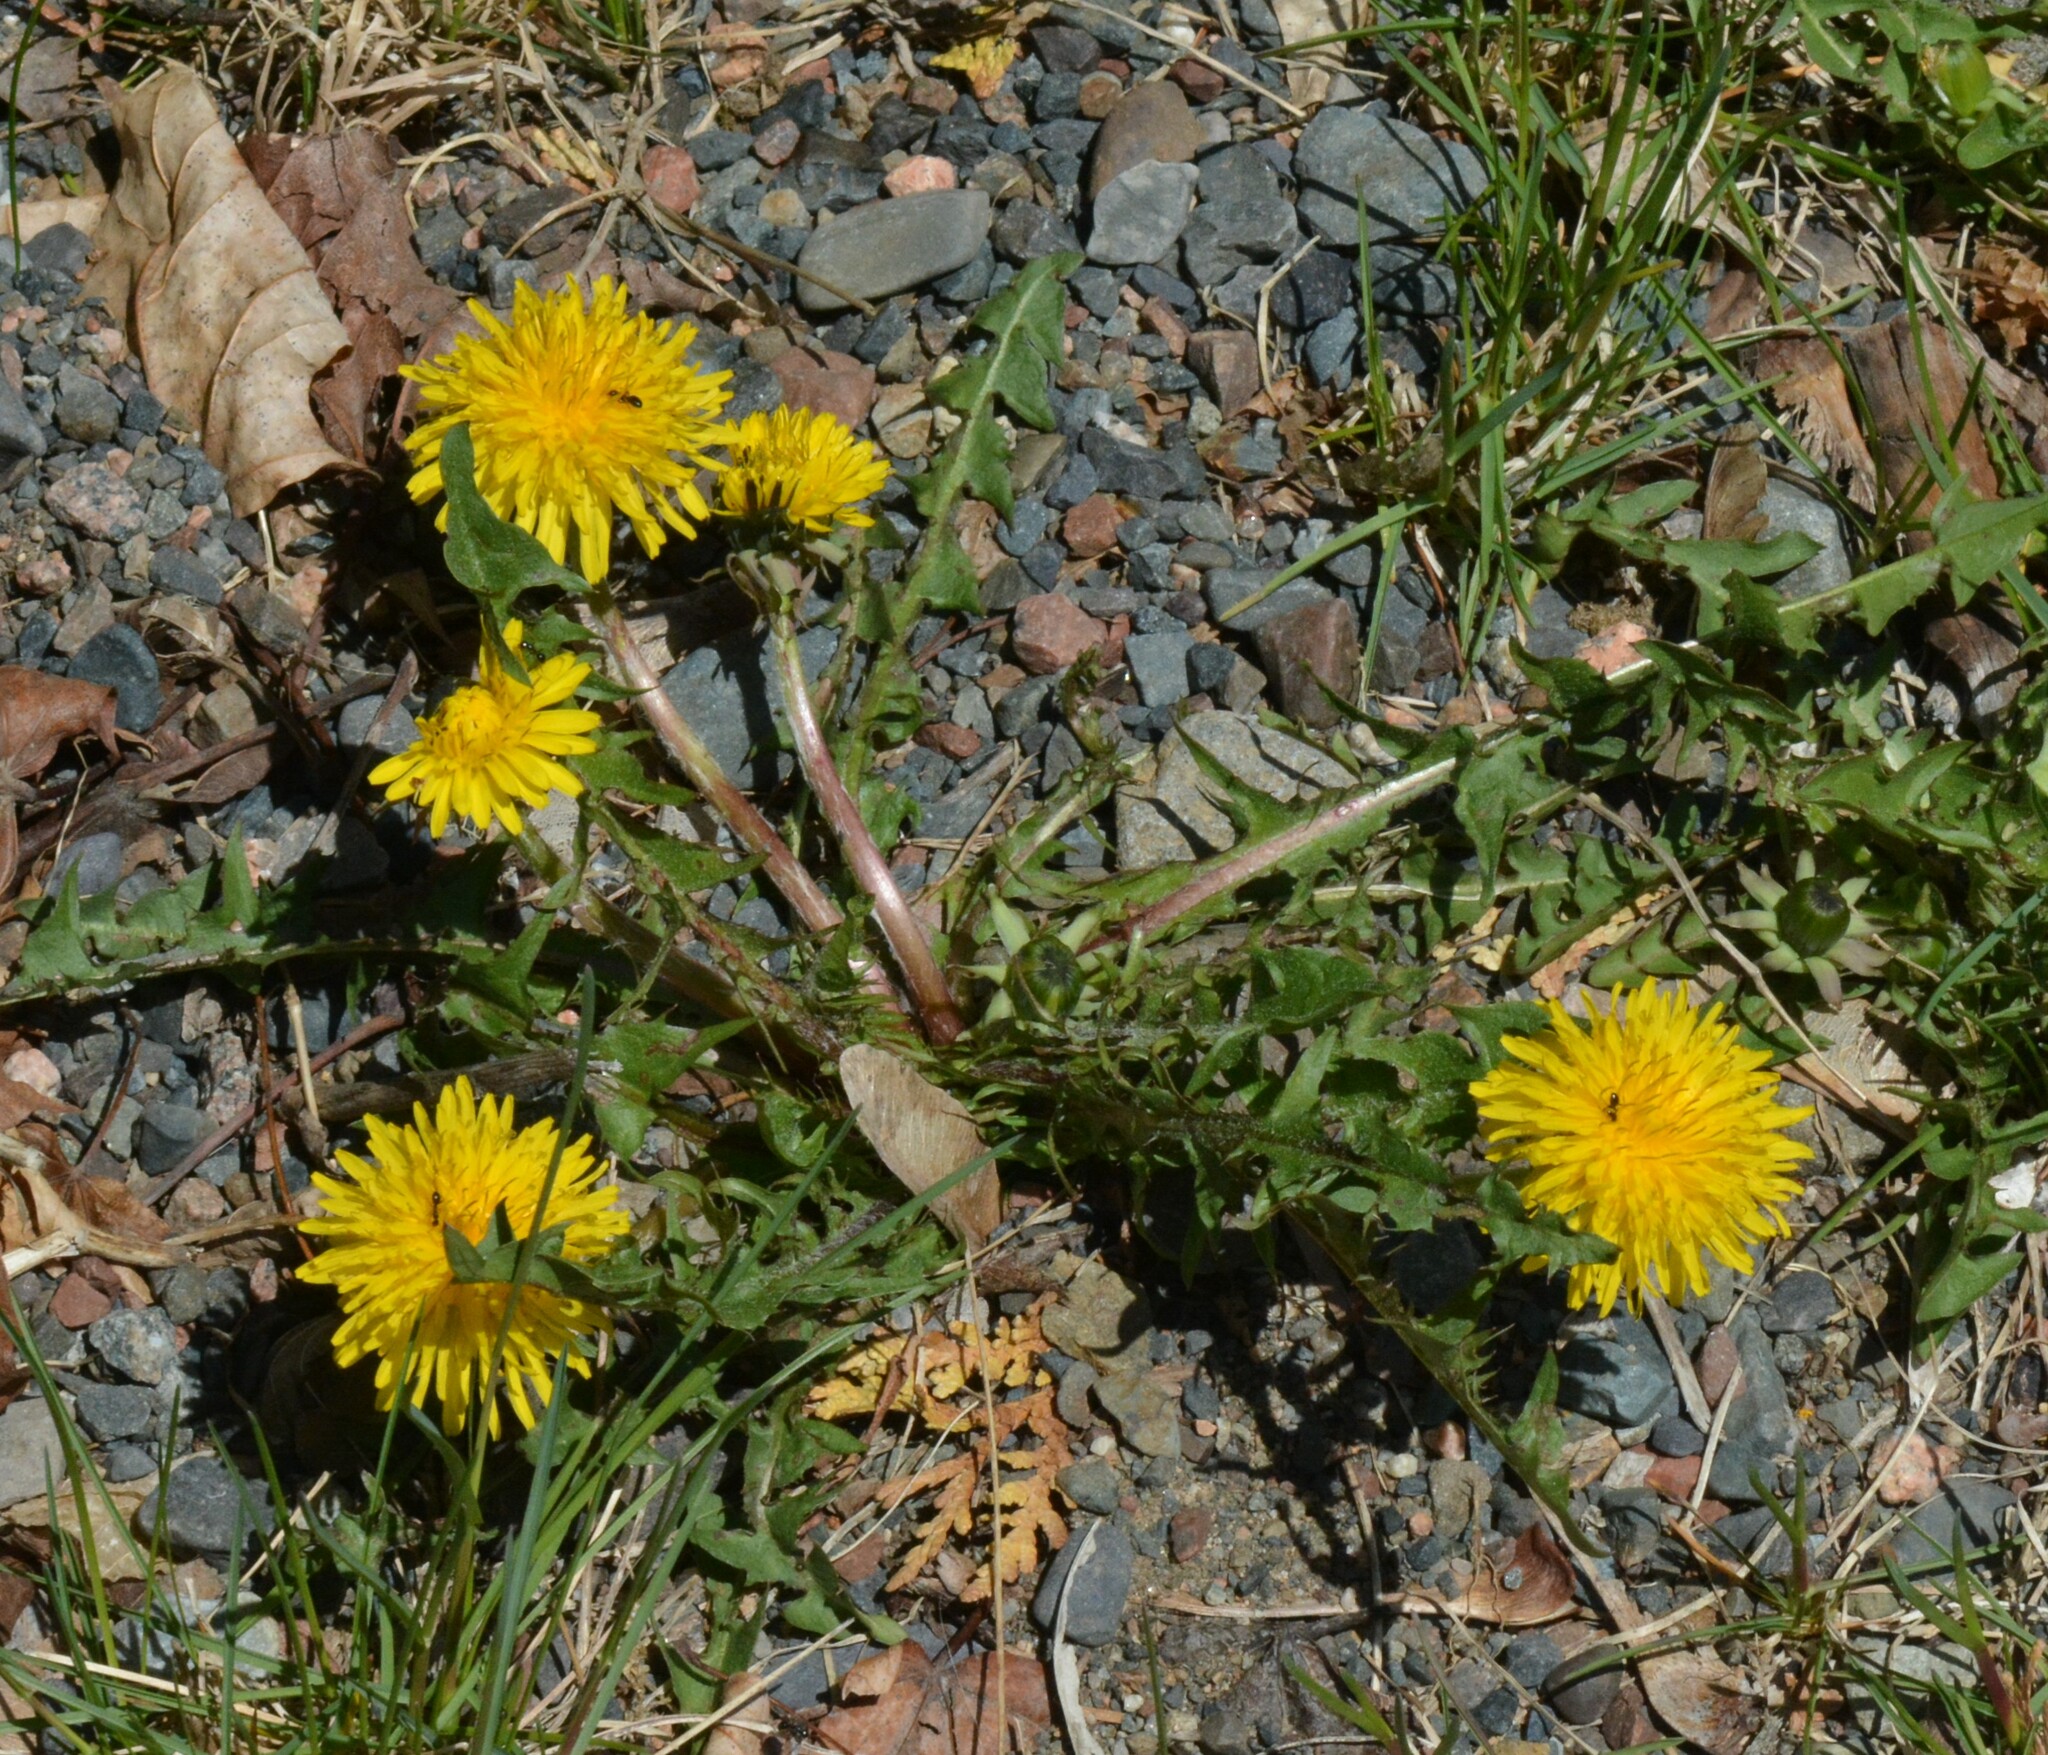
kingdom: Plantae
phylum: Tracheophyta
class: Magnoliopsida
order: Asterales
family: Asteraceae
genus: Taraxacum
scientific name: Taraxacum officinale
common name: Common dandelion
